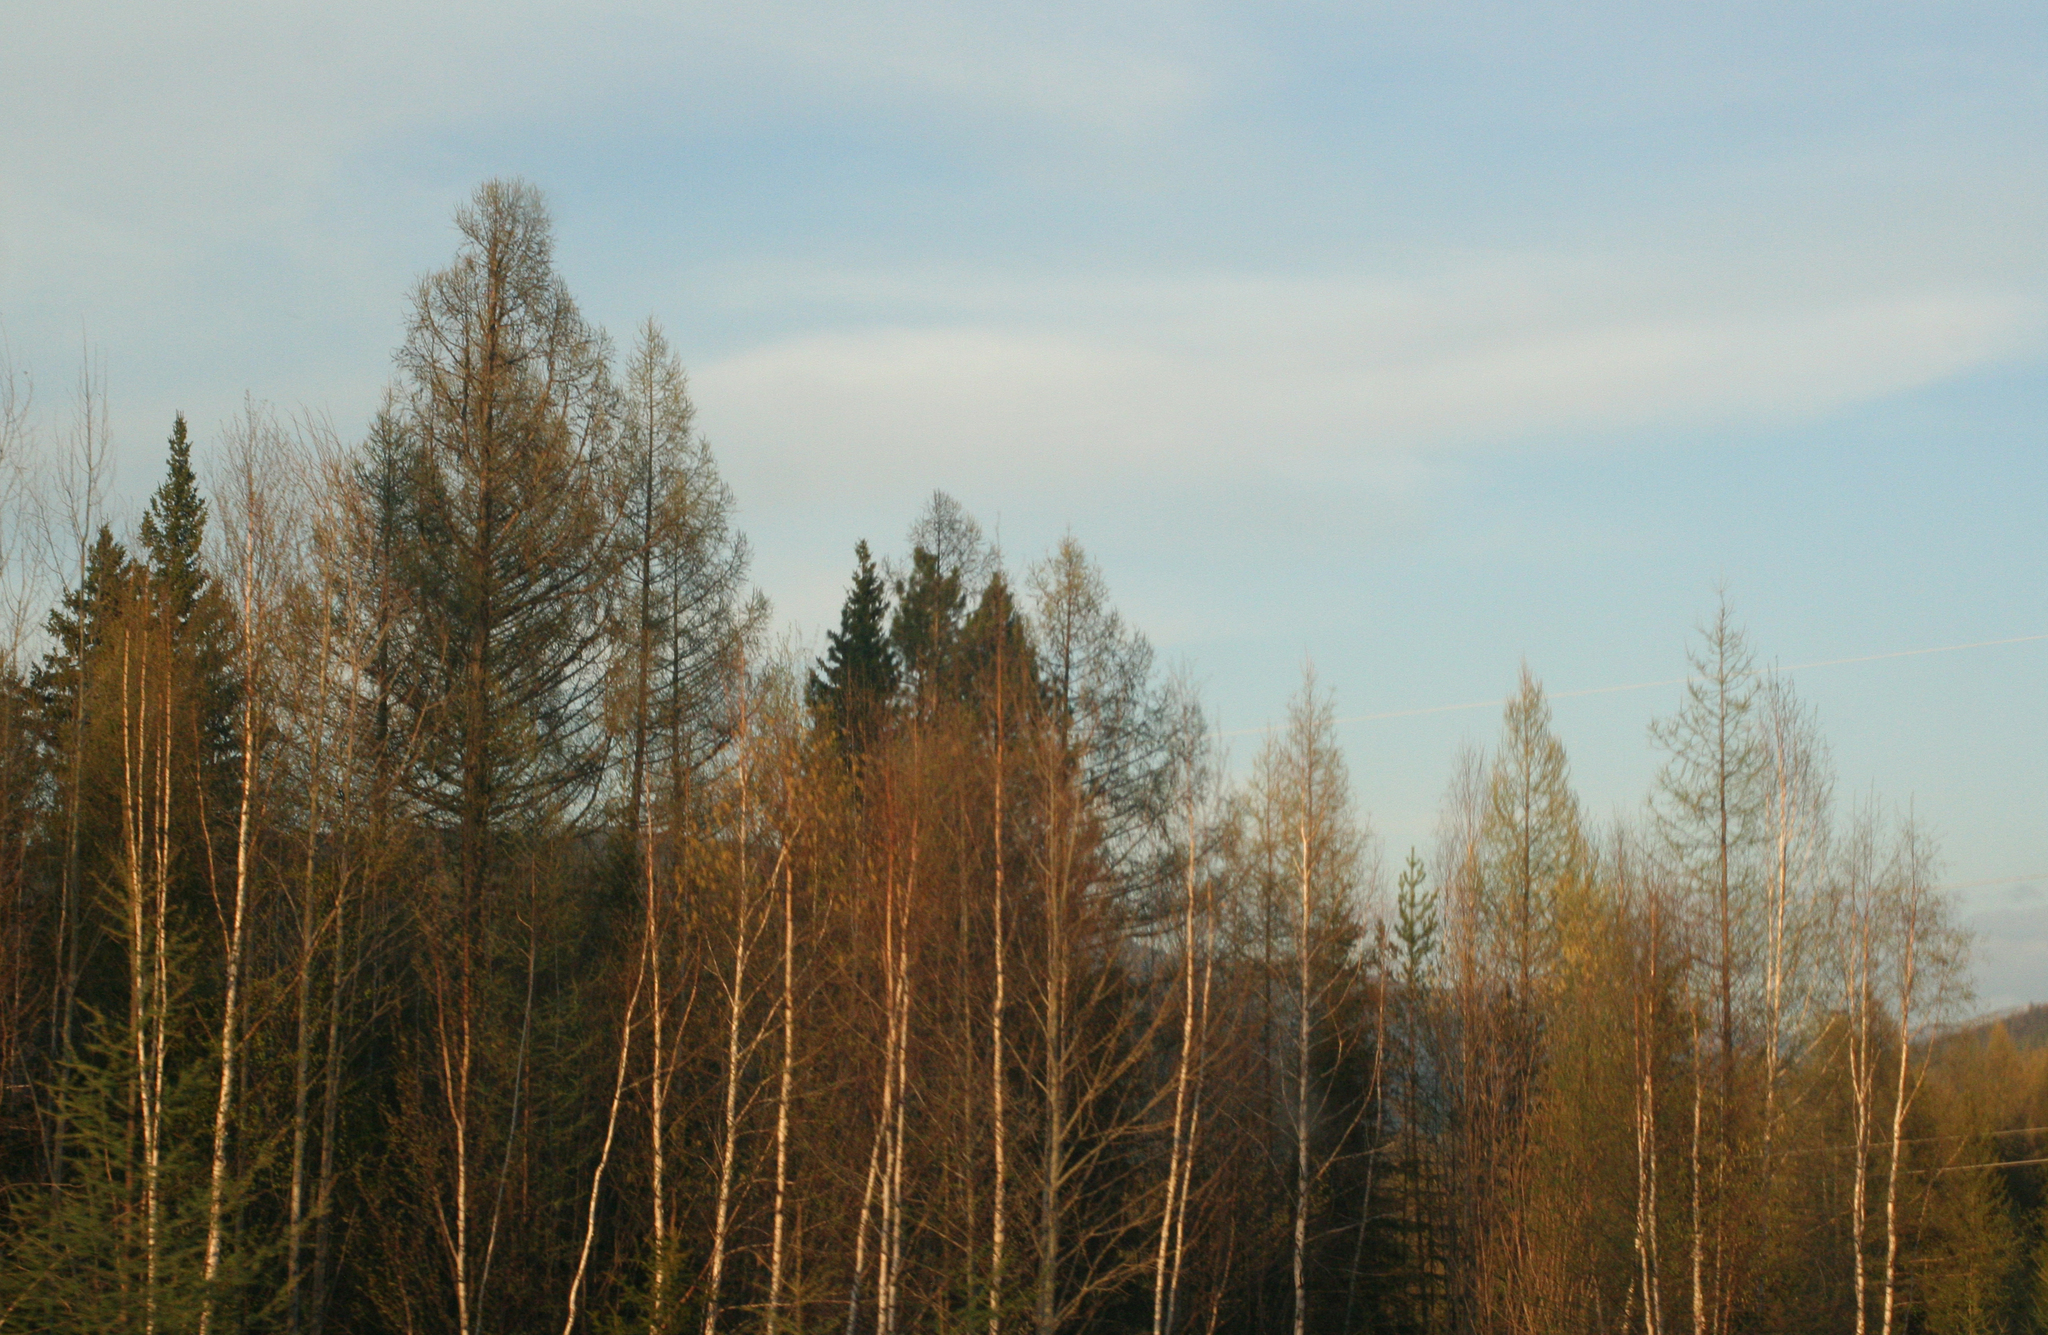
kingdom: Plantae
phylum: Tracheophyta
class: Pinopsida
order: Pinales
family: Pinaceae
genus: Larix
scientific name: Larix sibirica
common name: Siberian larch
